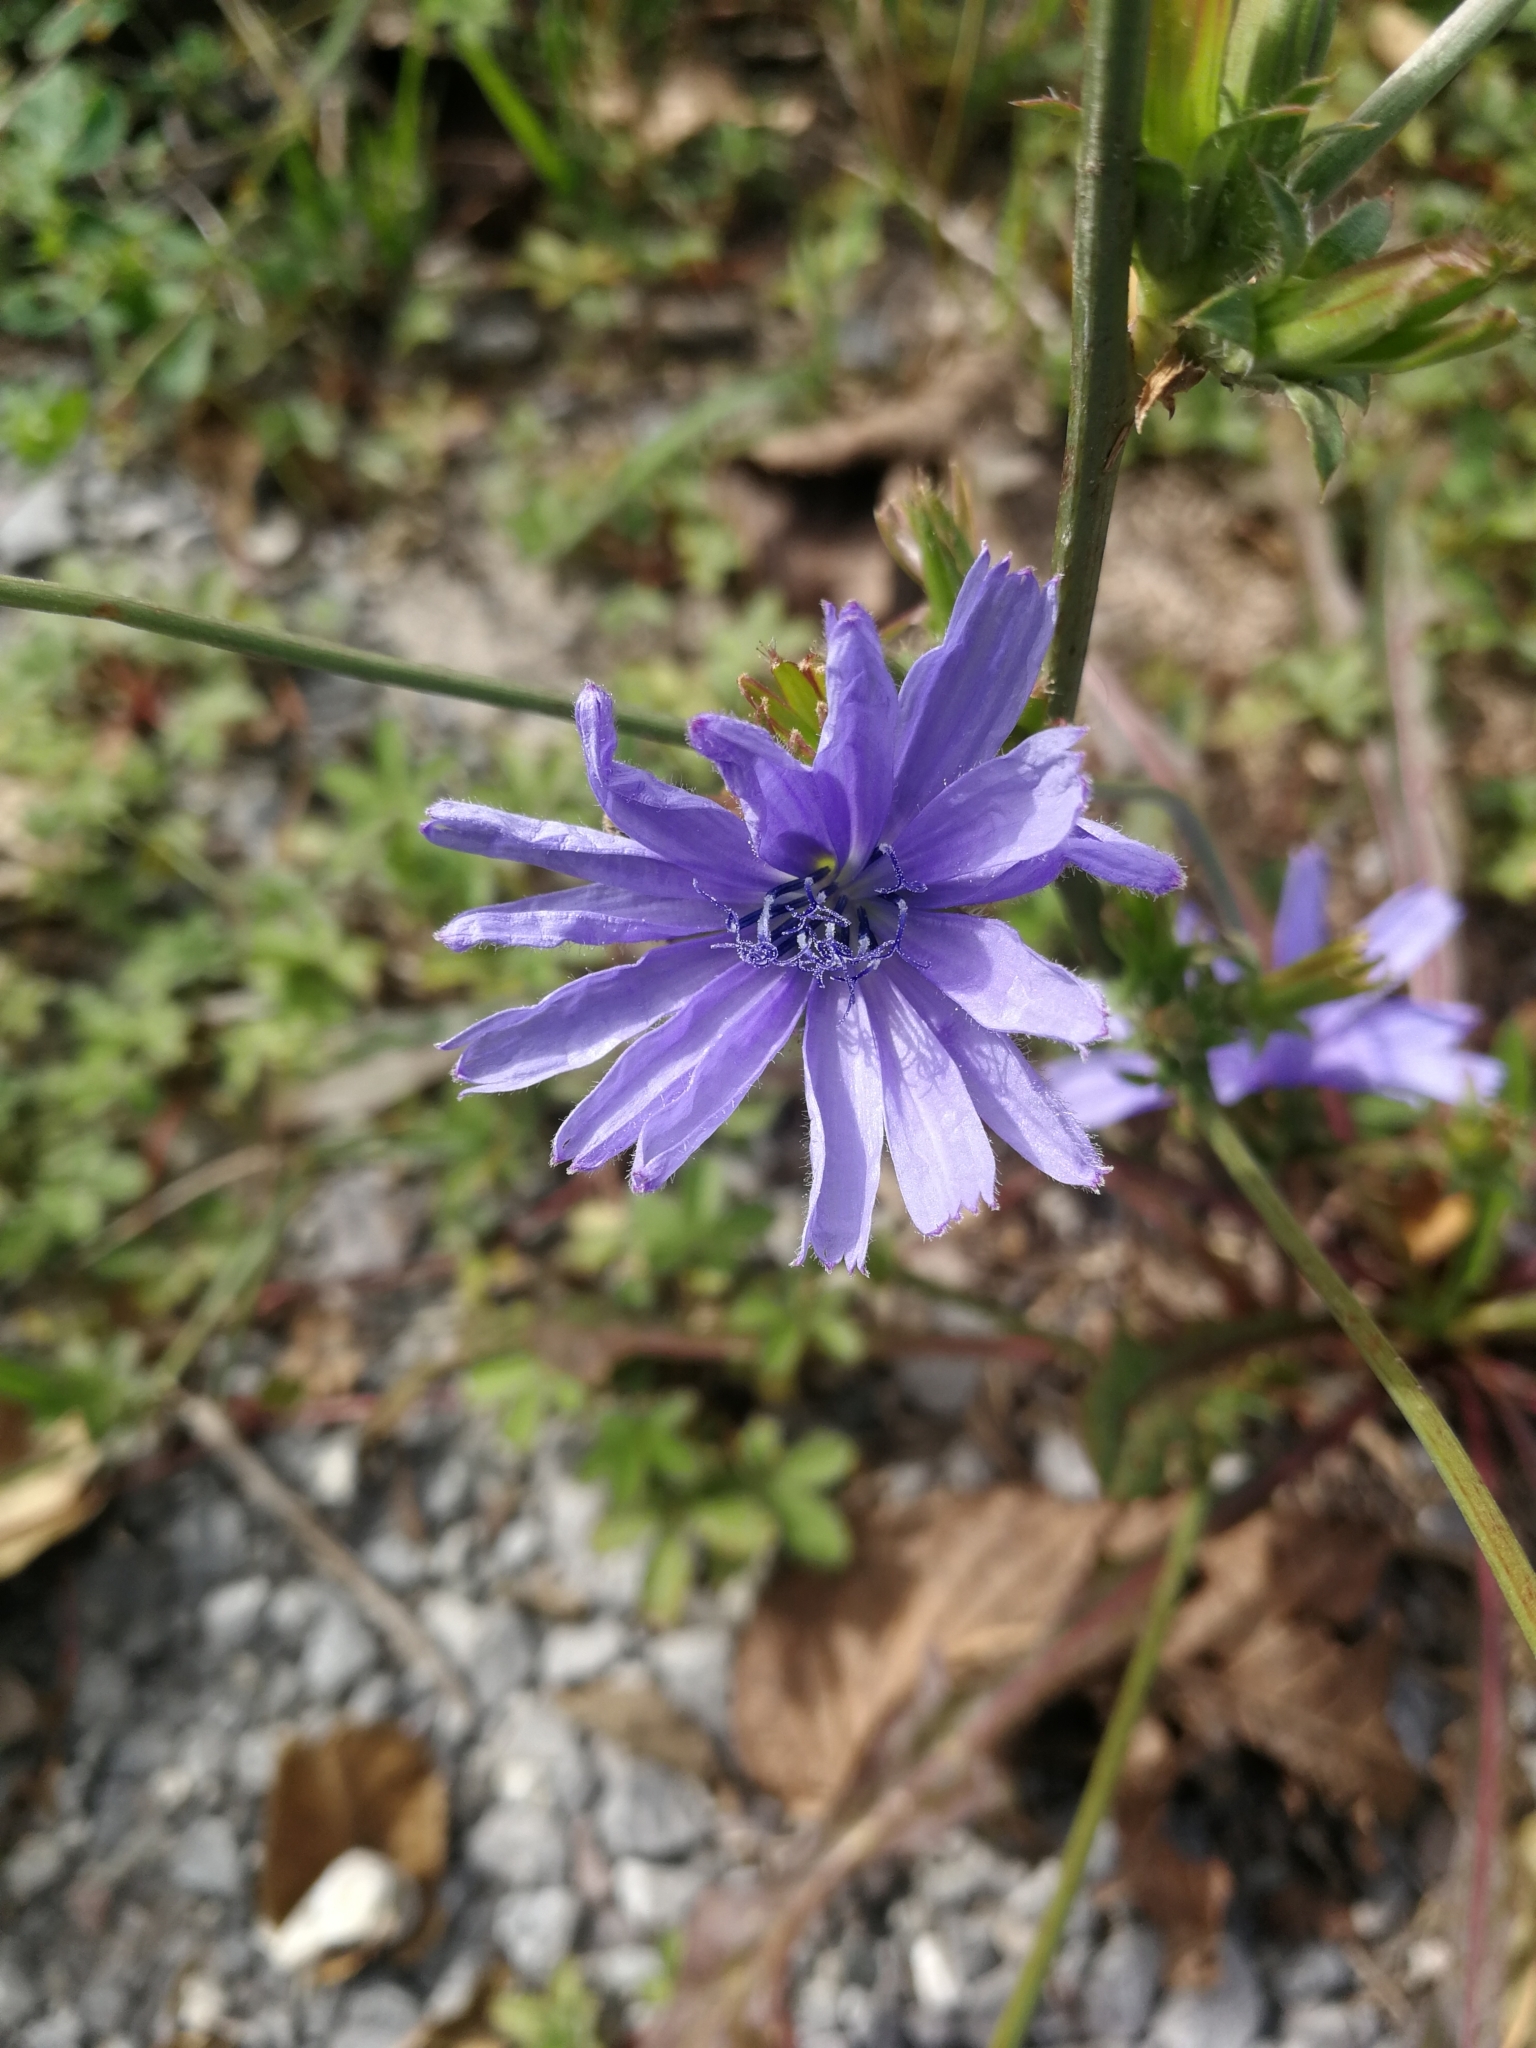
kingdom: Plantae
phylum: Tracheophyta
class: Magnoliopsida
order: Asterales
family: Asteraceae
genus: Cichorium
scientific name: Cichorium intybus
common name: Chicory
